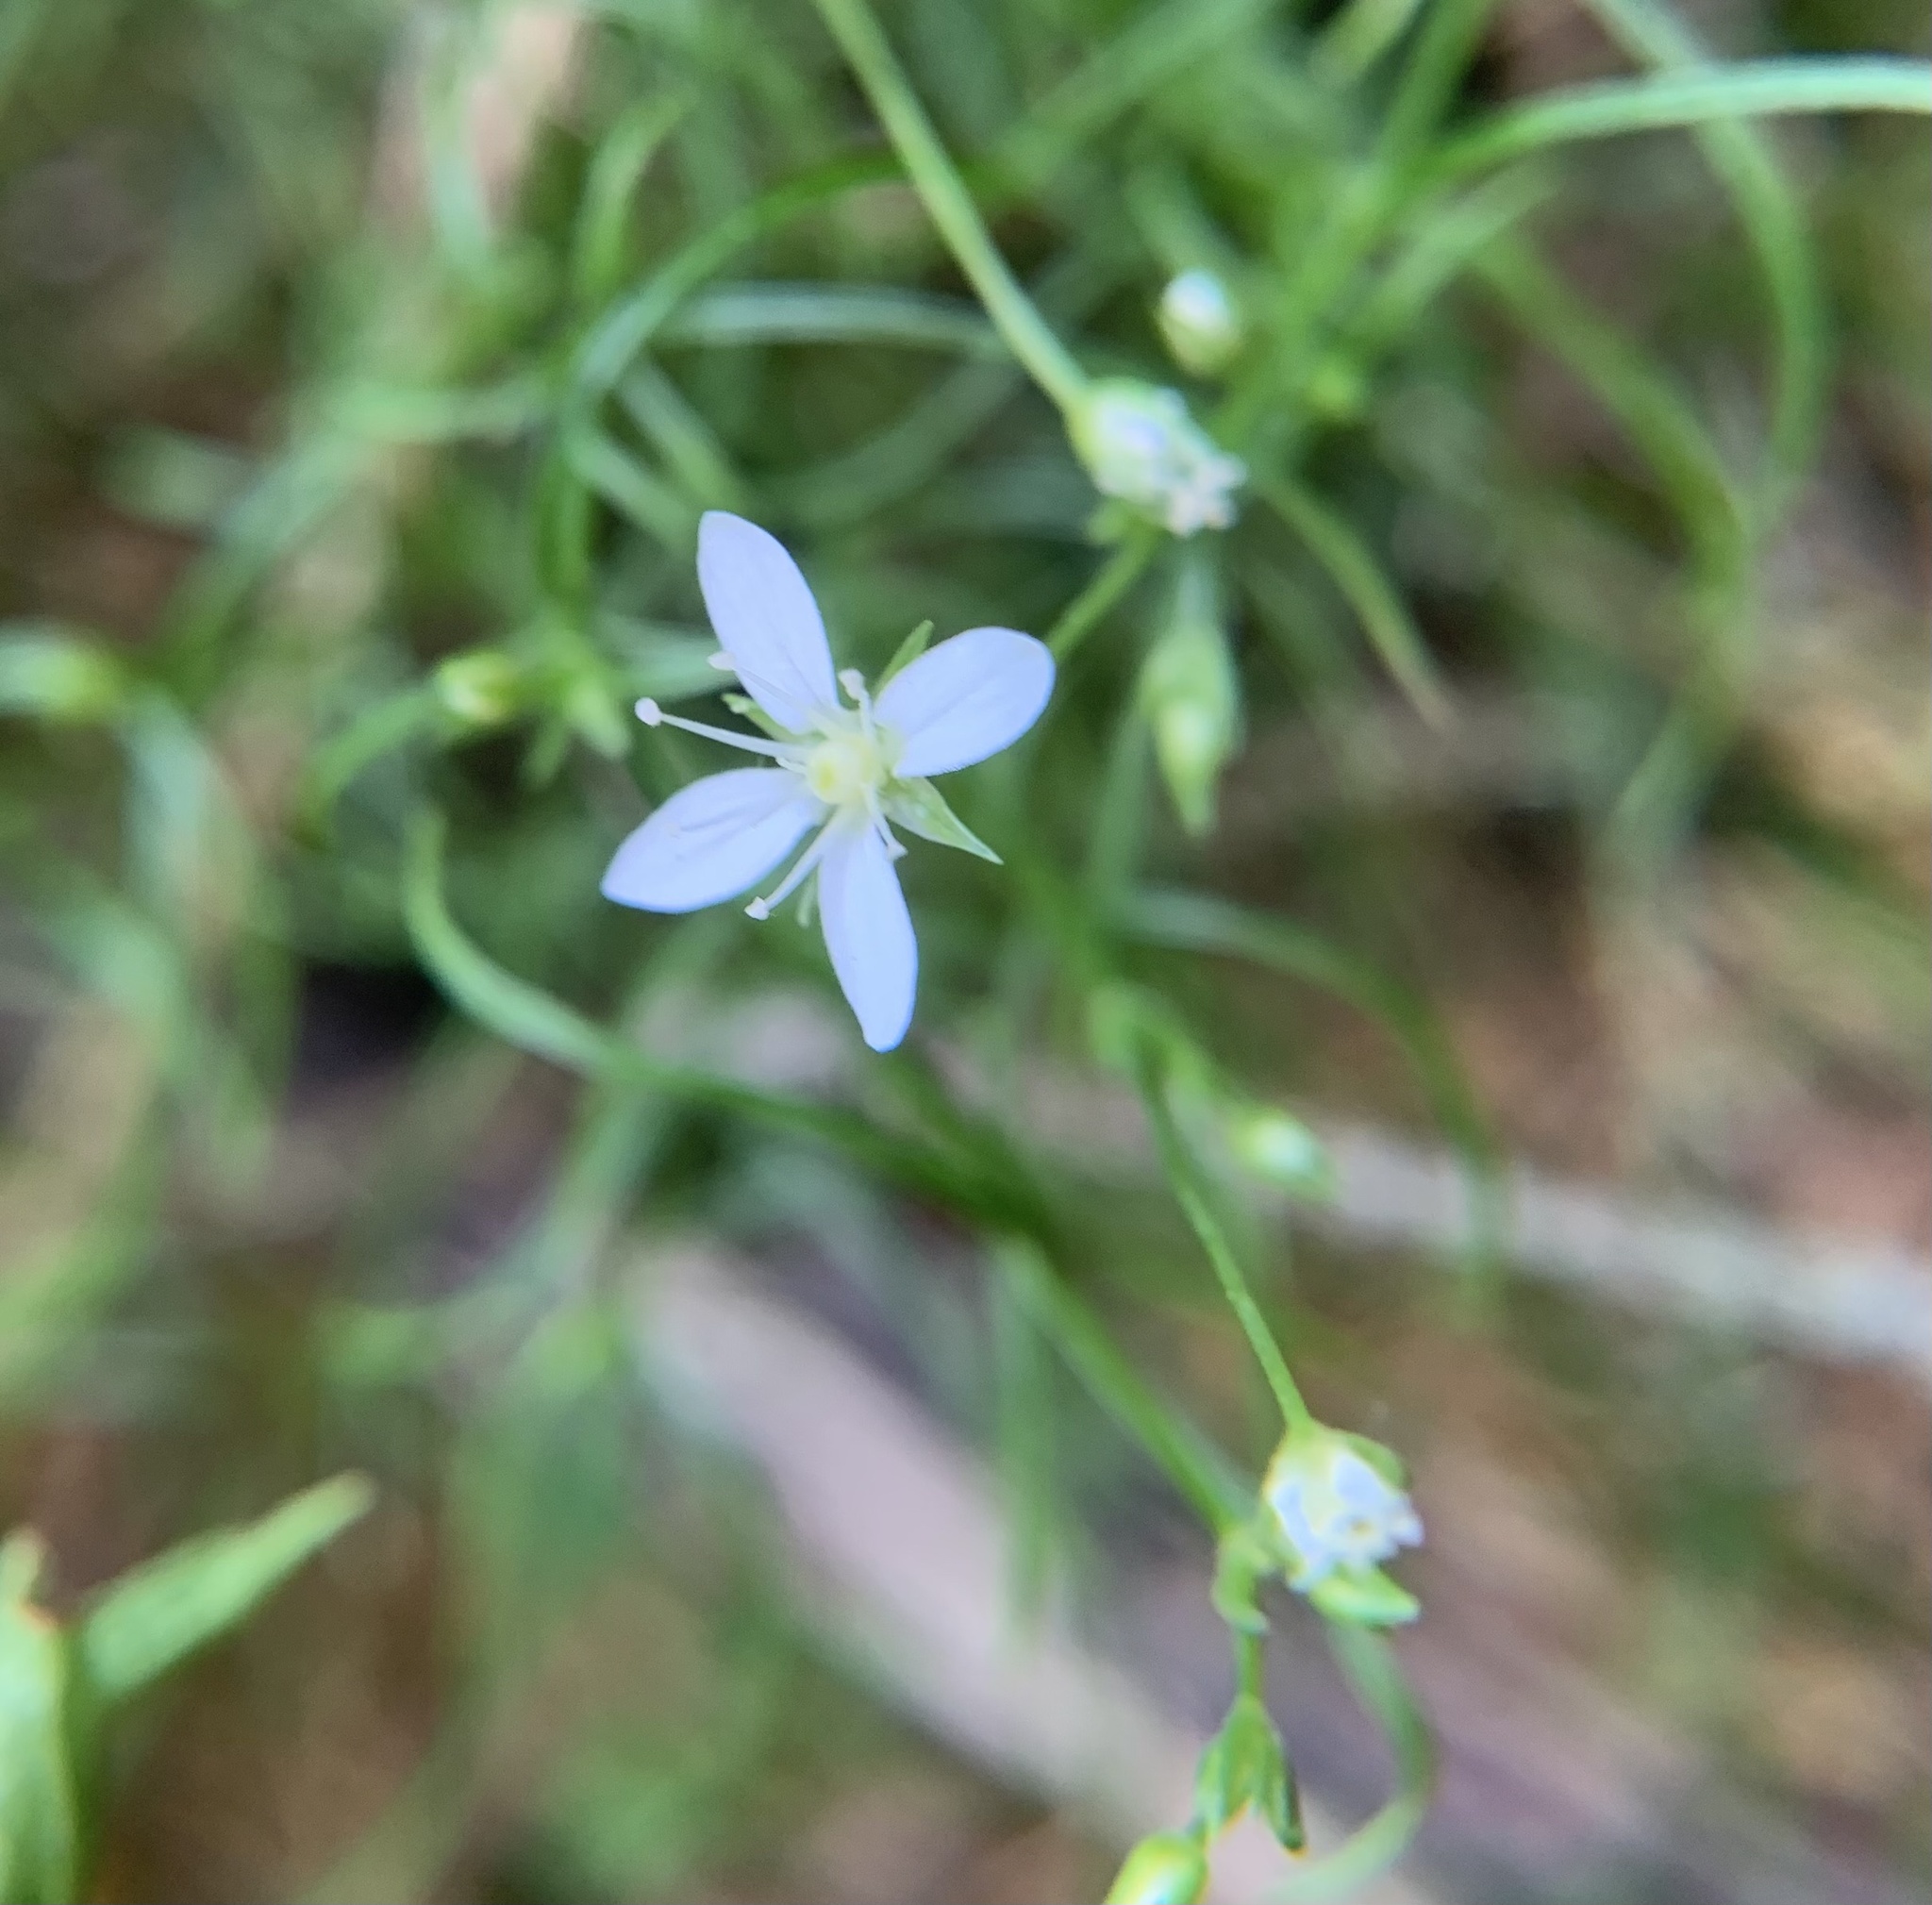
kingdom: Plantae
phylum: Tracheophyta
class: Magnoliopsida
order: Caryophyllales
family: Caryophyllaceae
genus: Moehringia
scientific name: Moehringia muscosa
